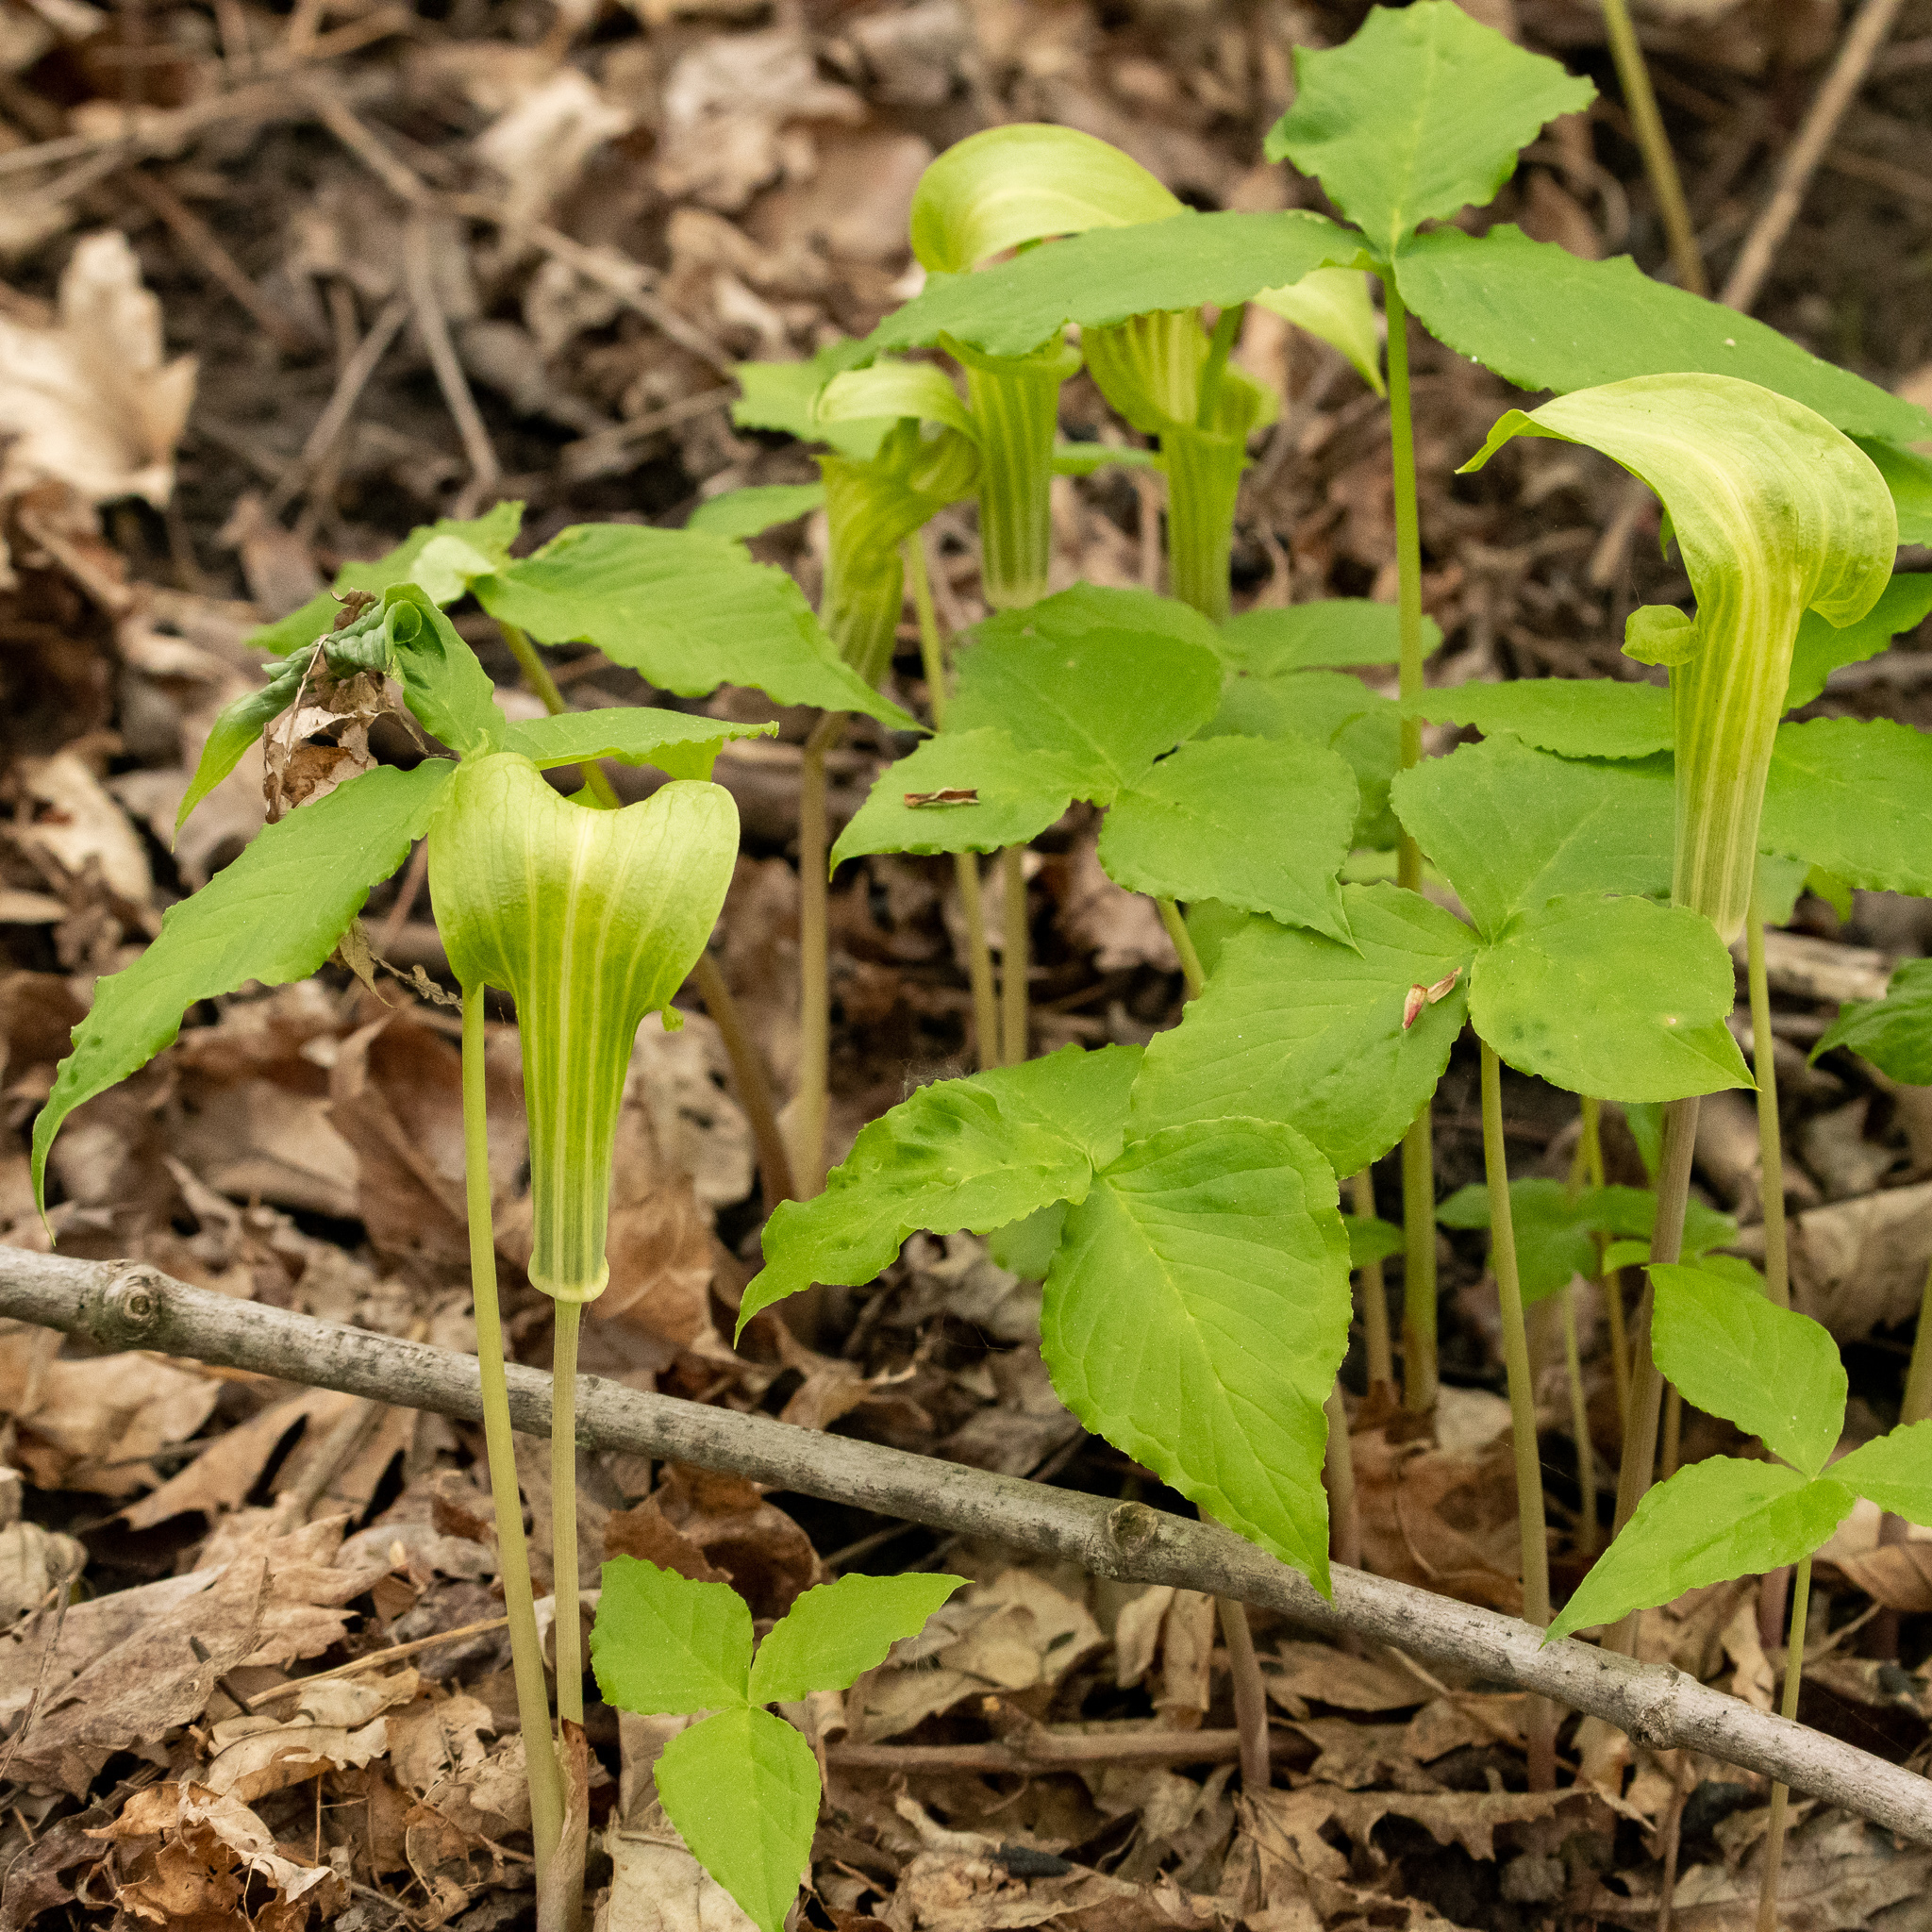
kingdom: Plantae
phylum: Tracheophyta
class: Liliopsida
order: Alismatales
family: Araceae
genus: Arisaema
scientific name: Arisaema triphyllum
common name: Jack-in-the-pulpit
